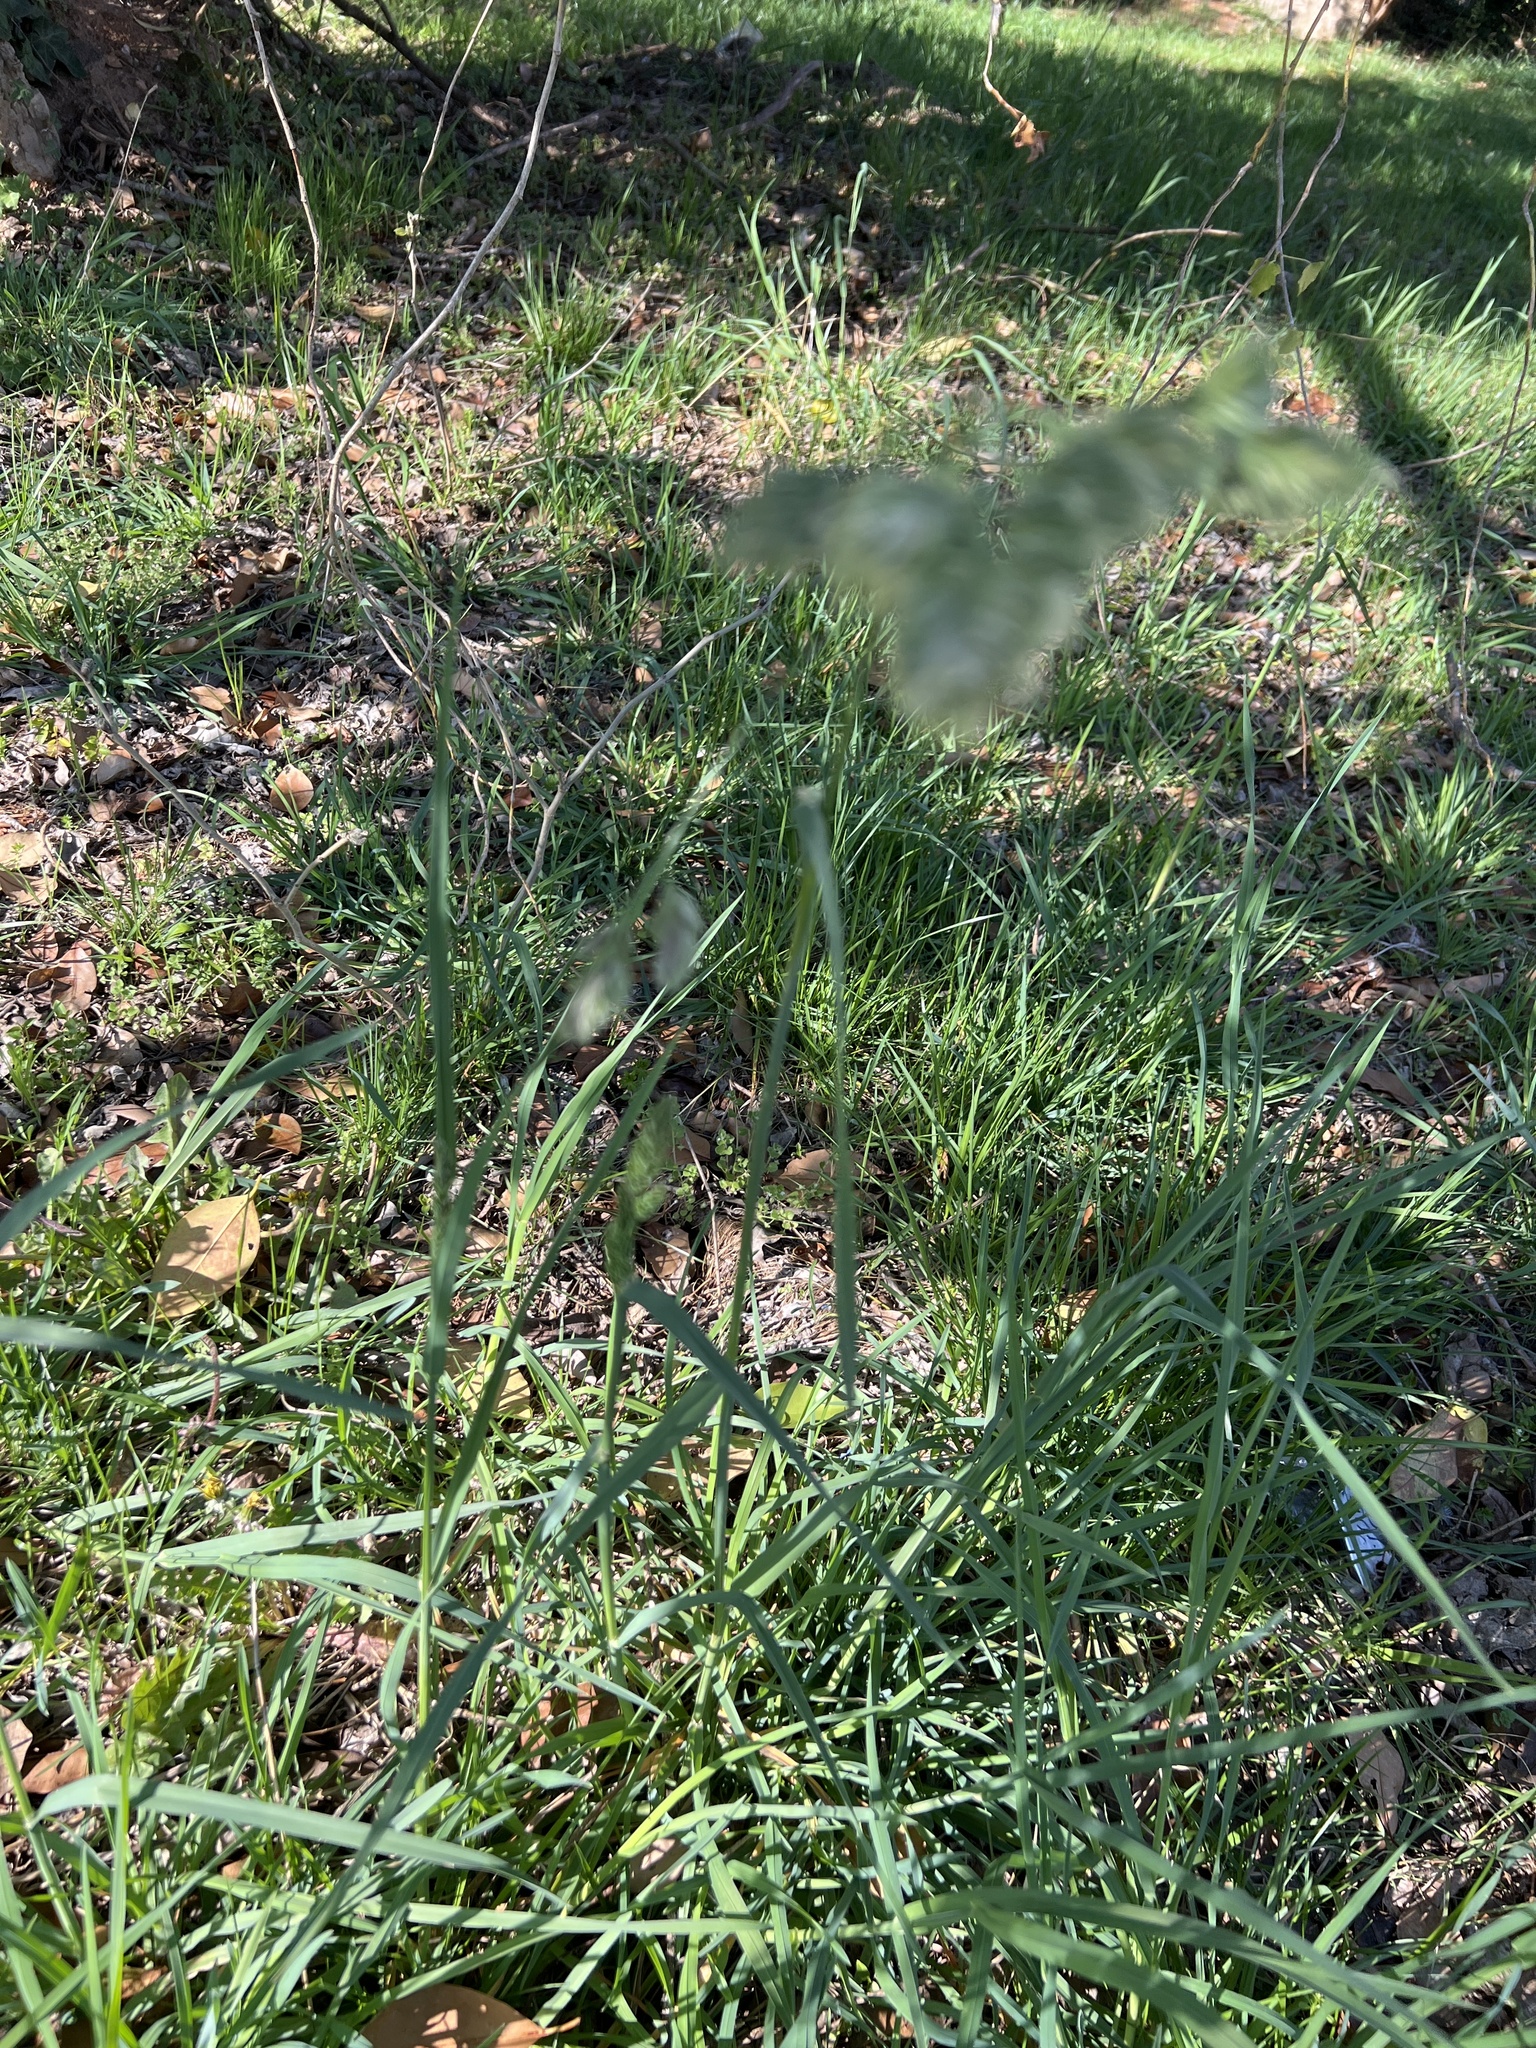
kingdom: Plantae
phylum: Tracheophyta
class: Liliopsida
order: Poales
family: Poaceae
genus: Dactylis
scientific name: Dactylis glomerata
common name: Orchardgrass
